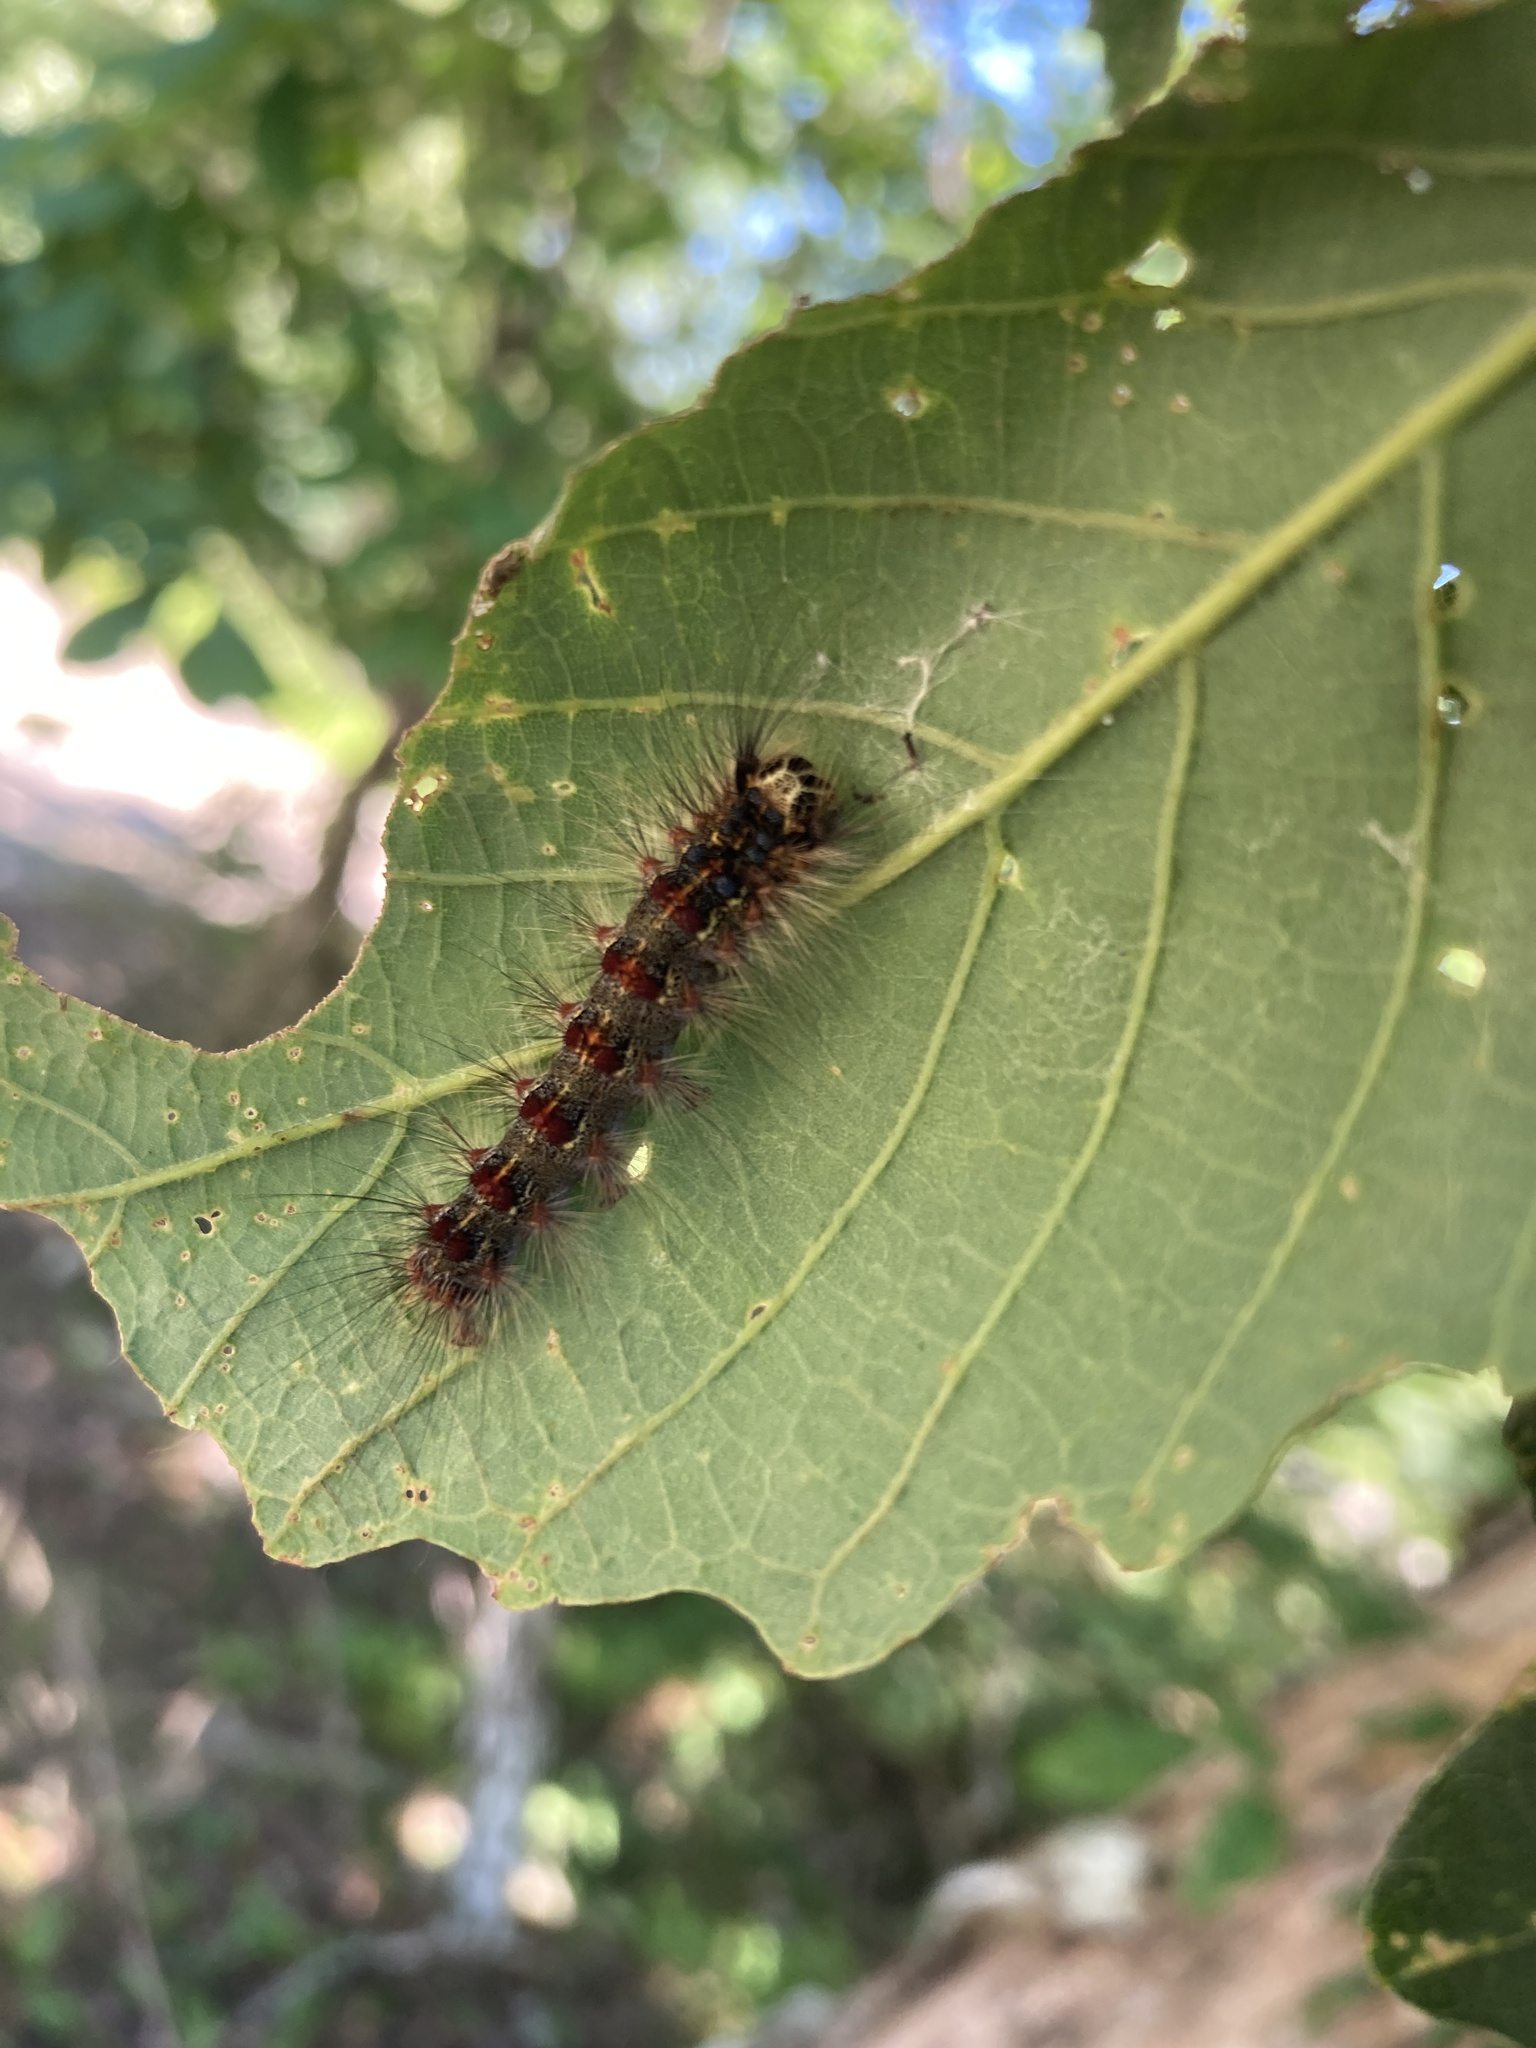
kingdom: Animalia
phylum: Arthropoda
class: Insecta
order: Lepidoptera
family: Erebidae
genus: Lymantria
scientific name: Lymantria dispar
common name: Gypsy moth
